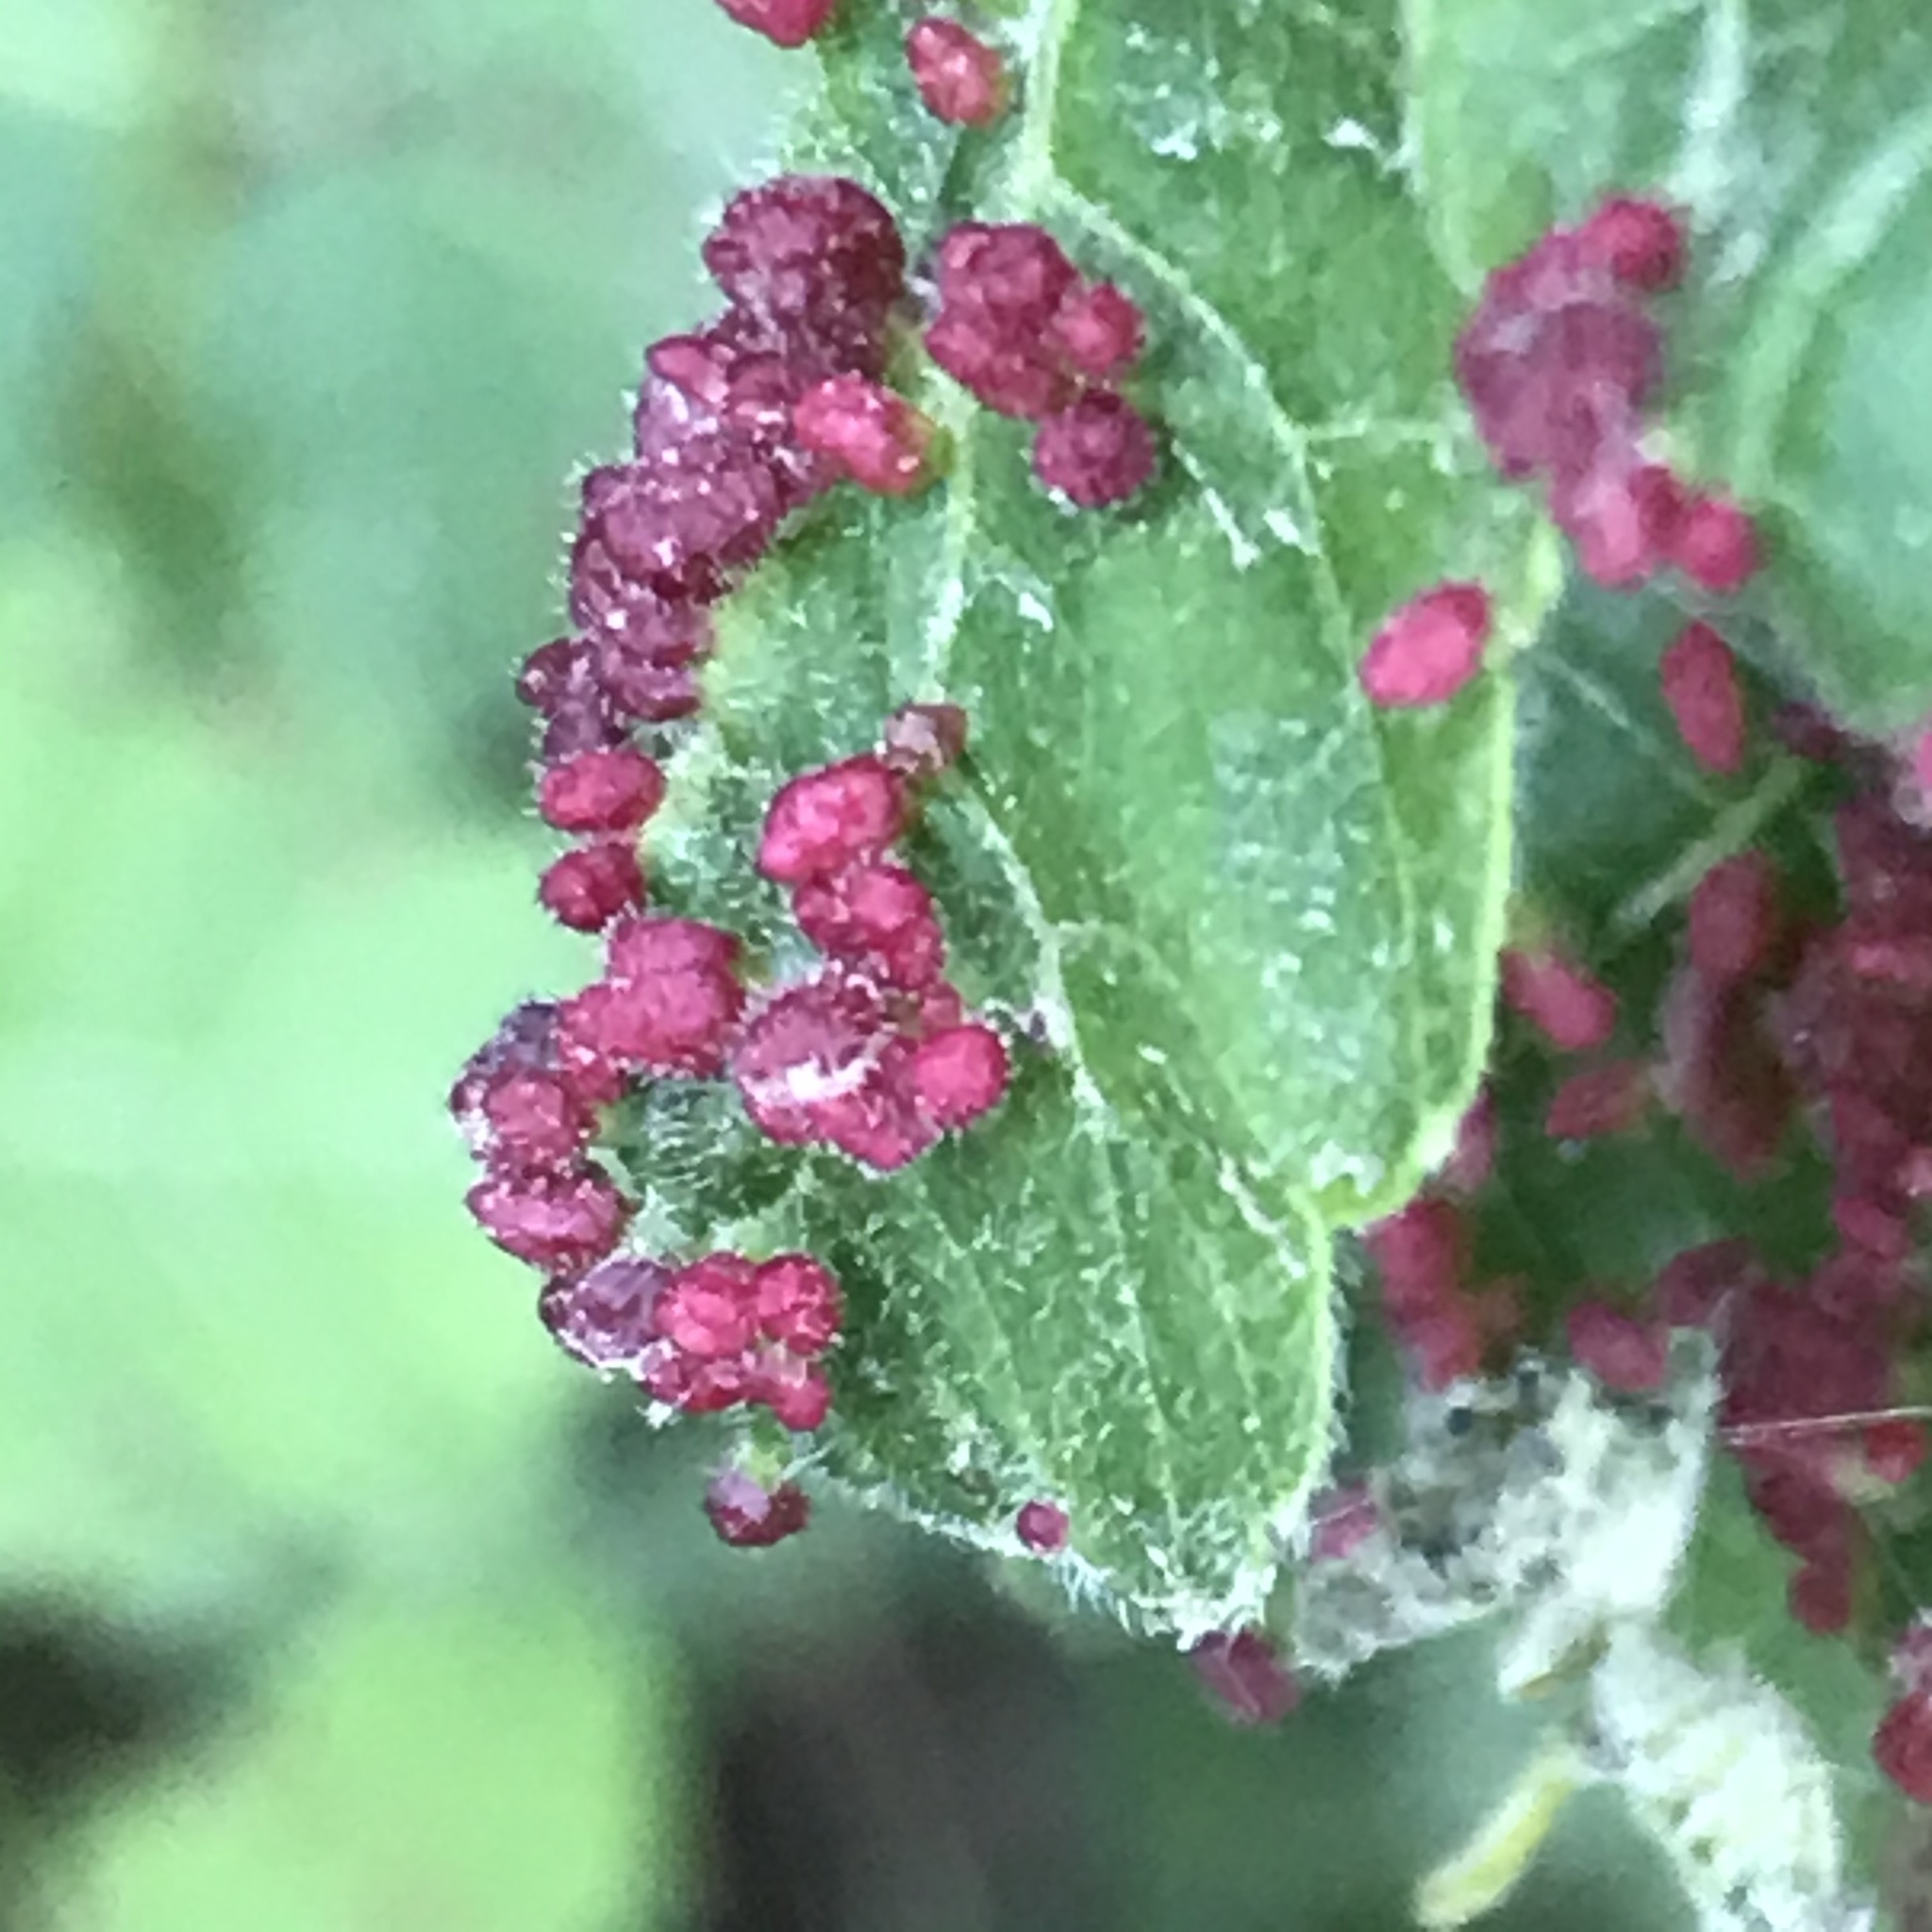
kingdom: Animalia
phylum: Arthropoda
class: Arachnida
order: Trombidiformes
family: Eriophyidae
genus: Aculops
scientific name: Aculops
